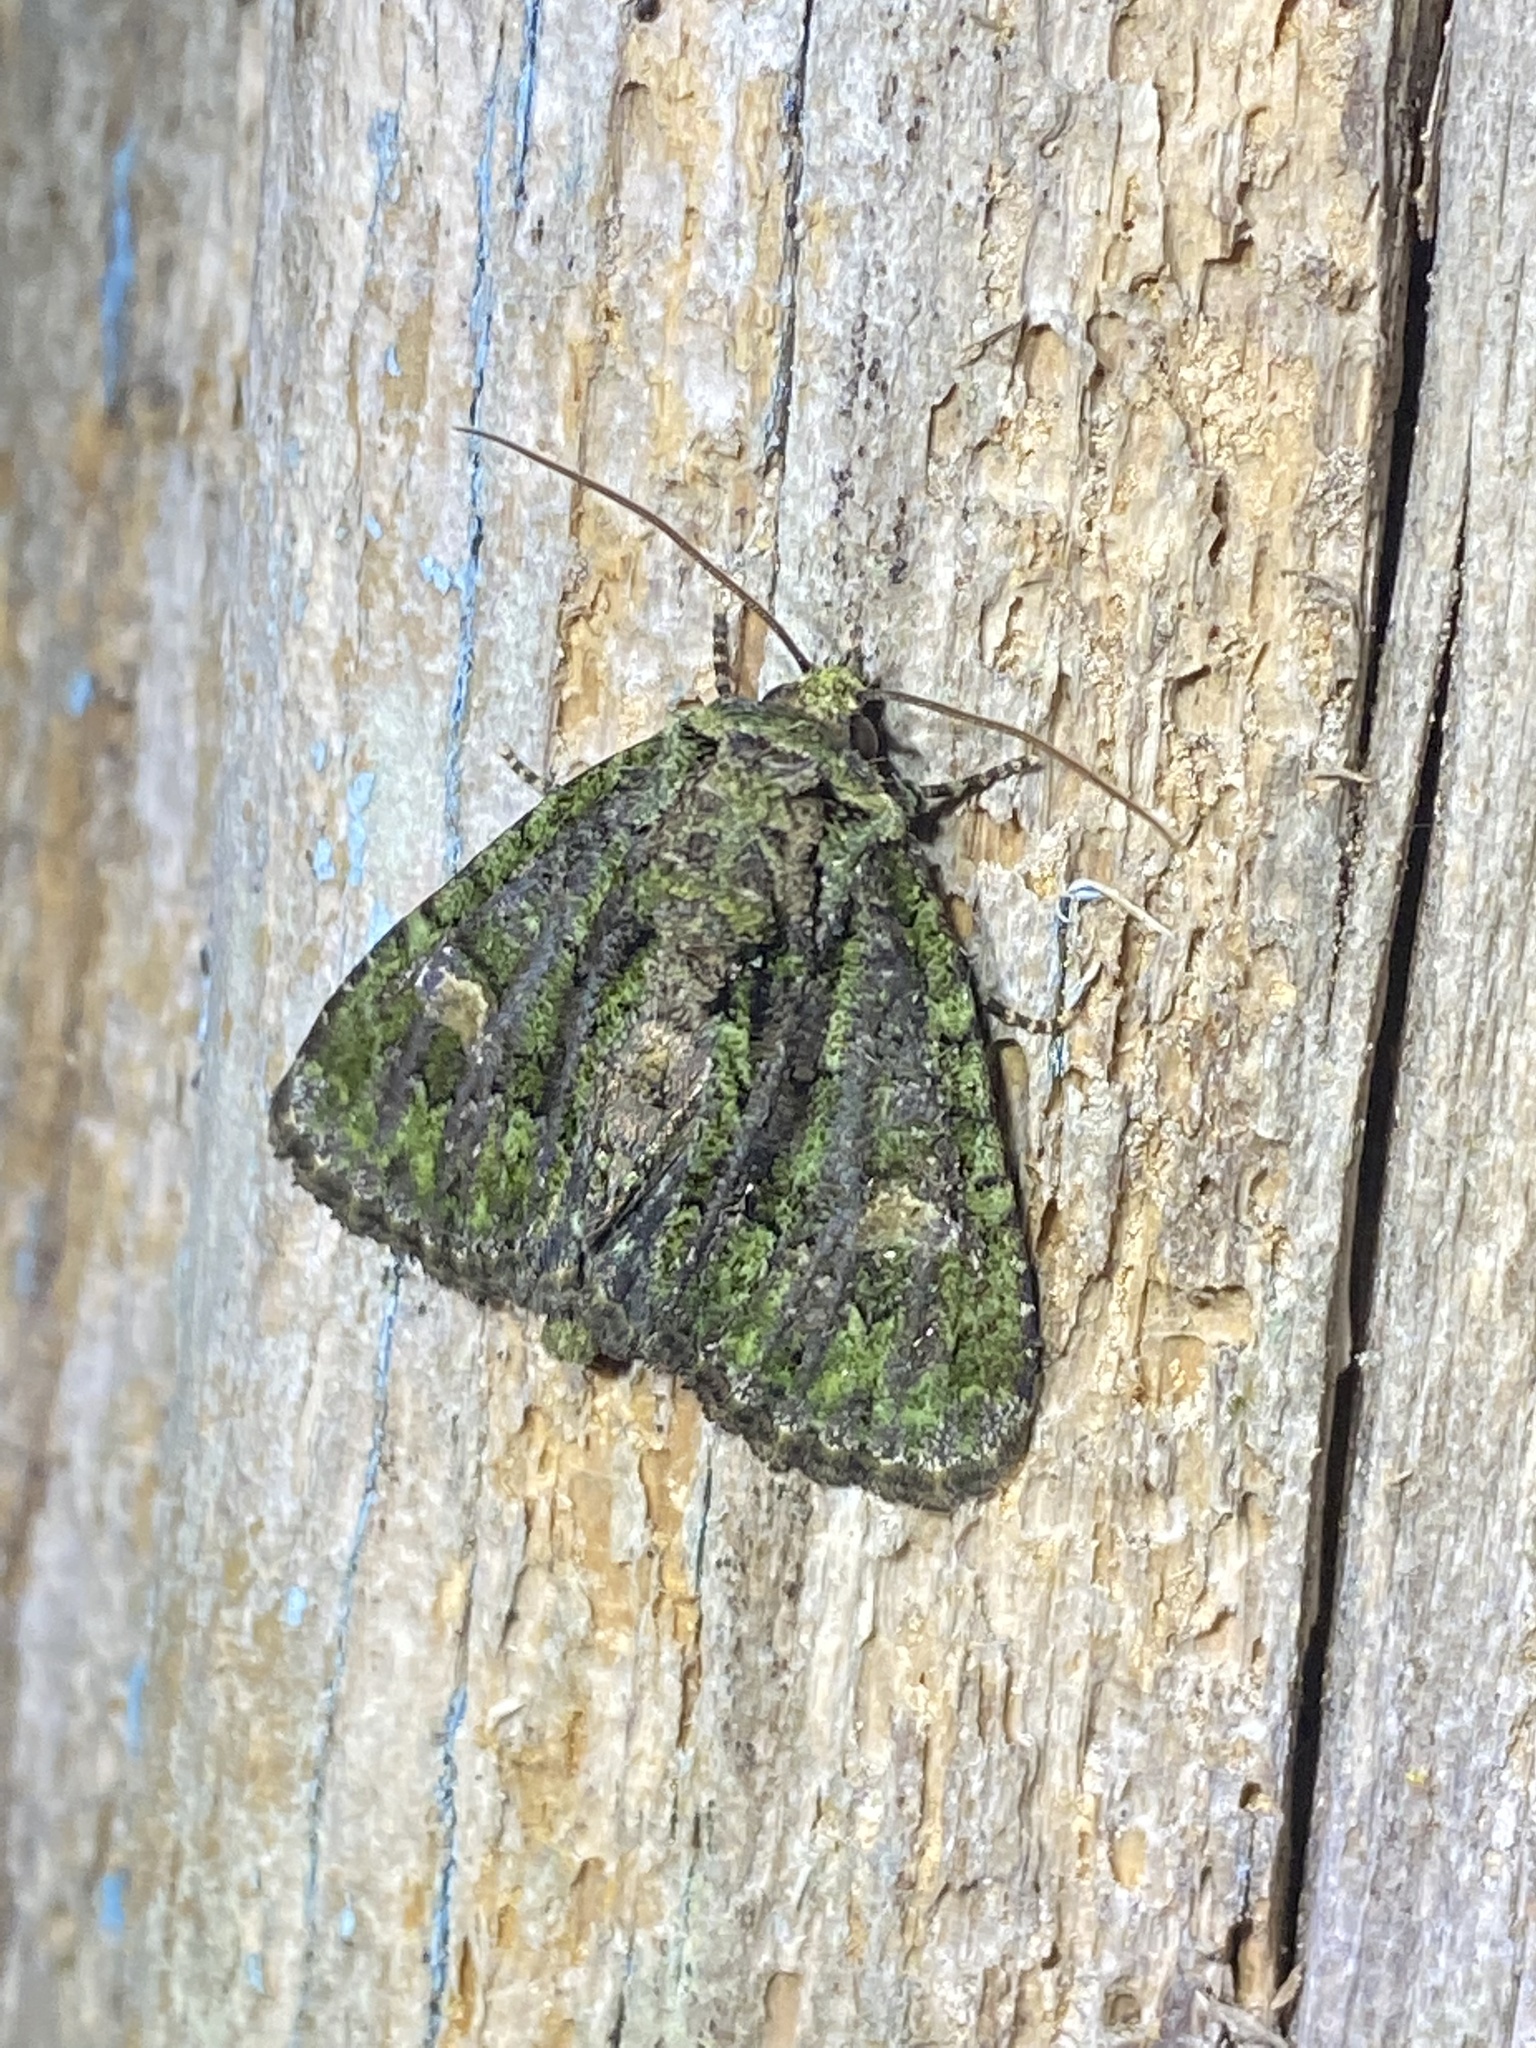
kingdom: Animalia
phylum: Arthropoda
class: Insecta
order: Lepidoptera
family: Noctuidae
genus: Phosphila
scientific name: Phosphila miselioides
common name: Spotted phosphila moth
